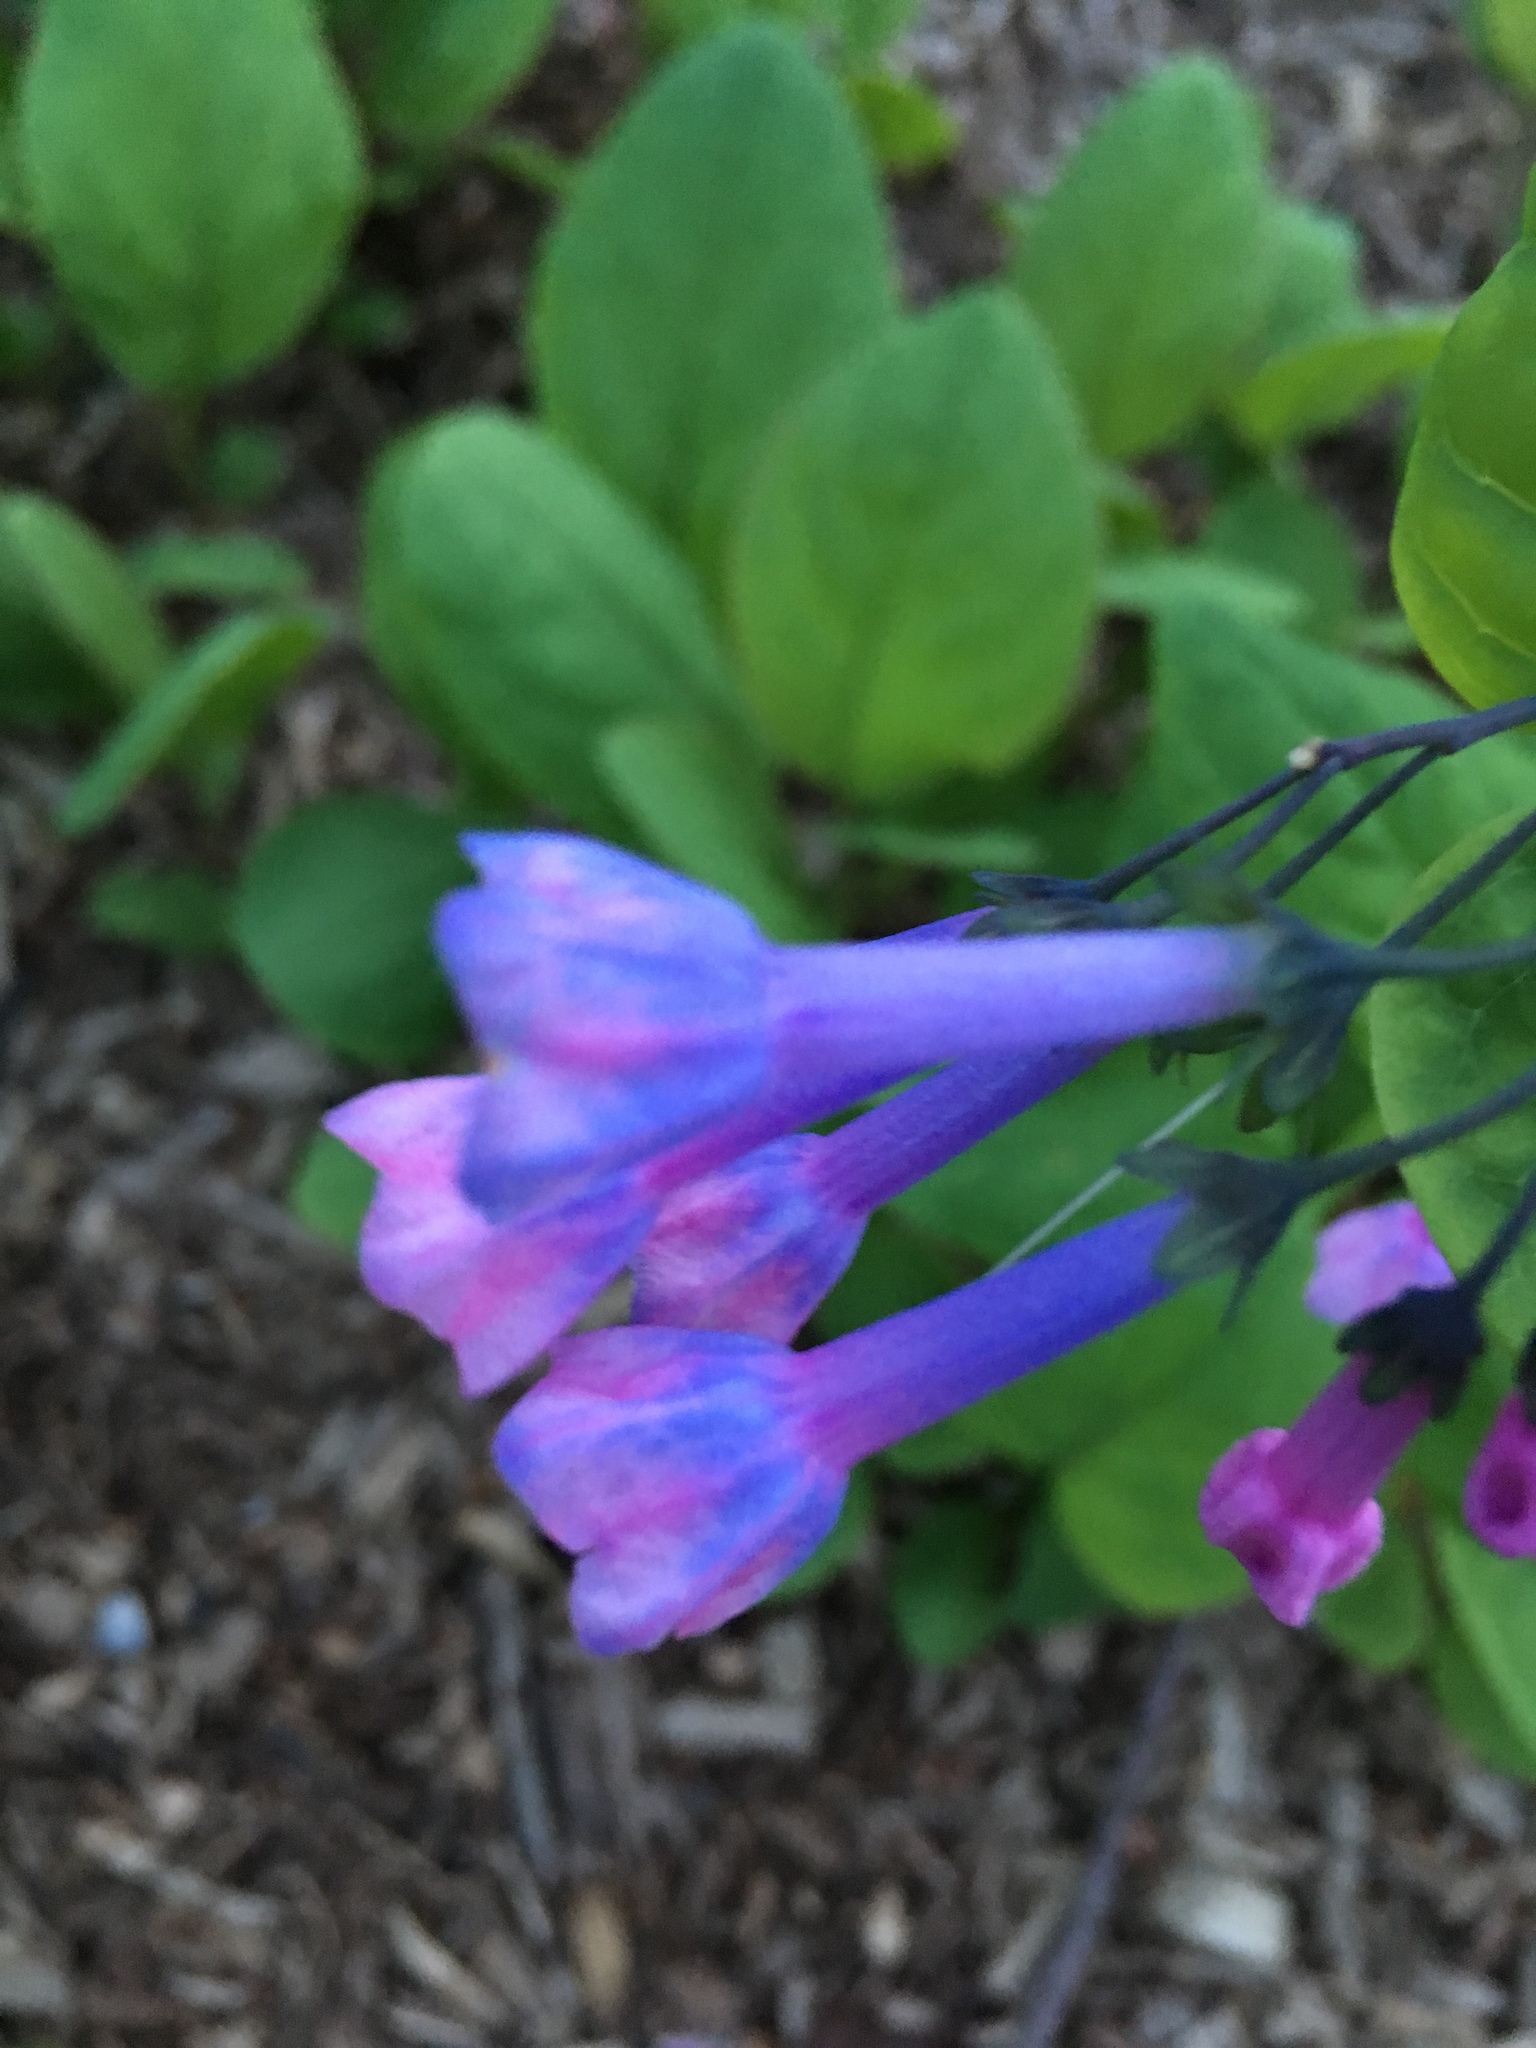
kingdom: Plantae
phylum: Tracheophyta
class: Magnoliopsida
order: Boraginales
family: Boraginaceae
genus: Mertensia
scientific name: Mertensia virginica
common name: Virginia bluebells
